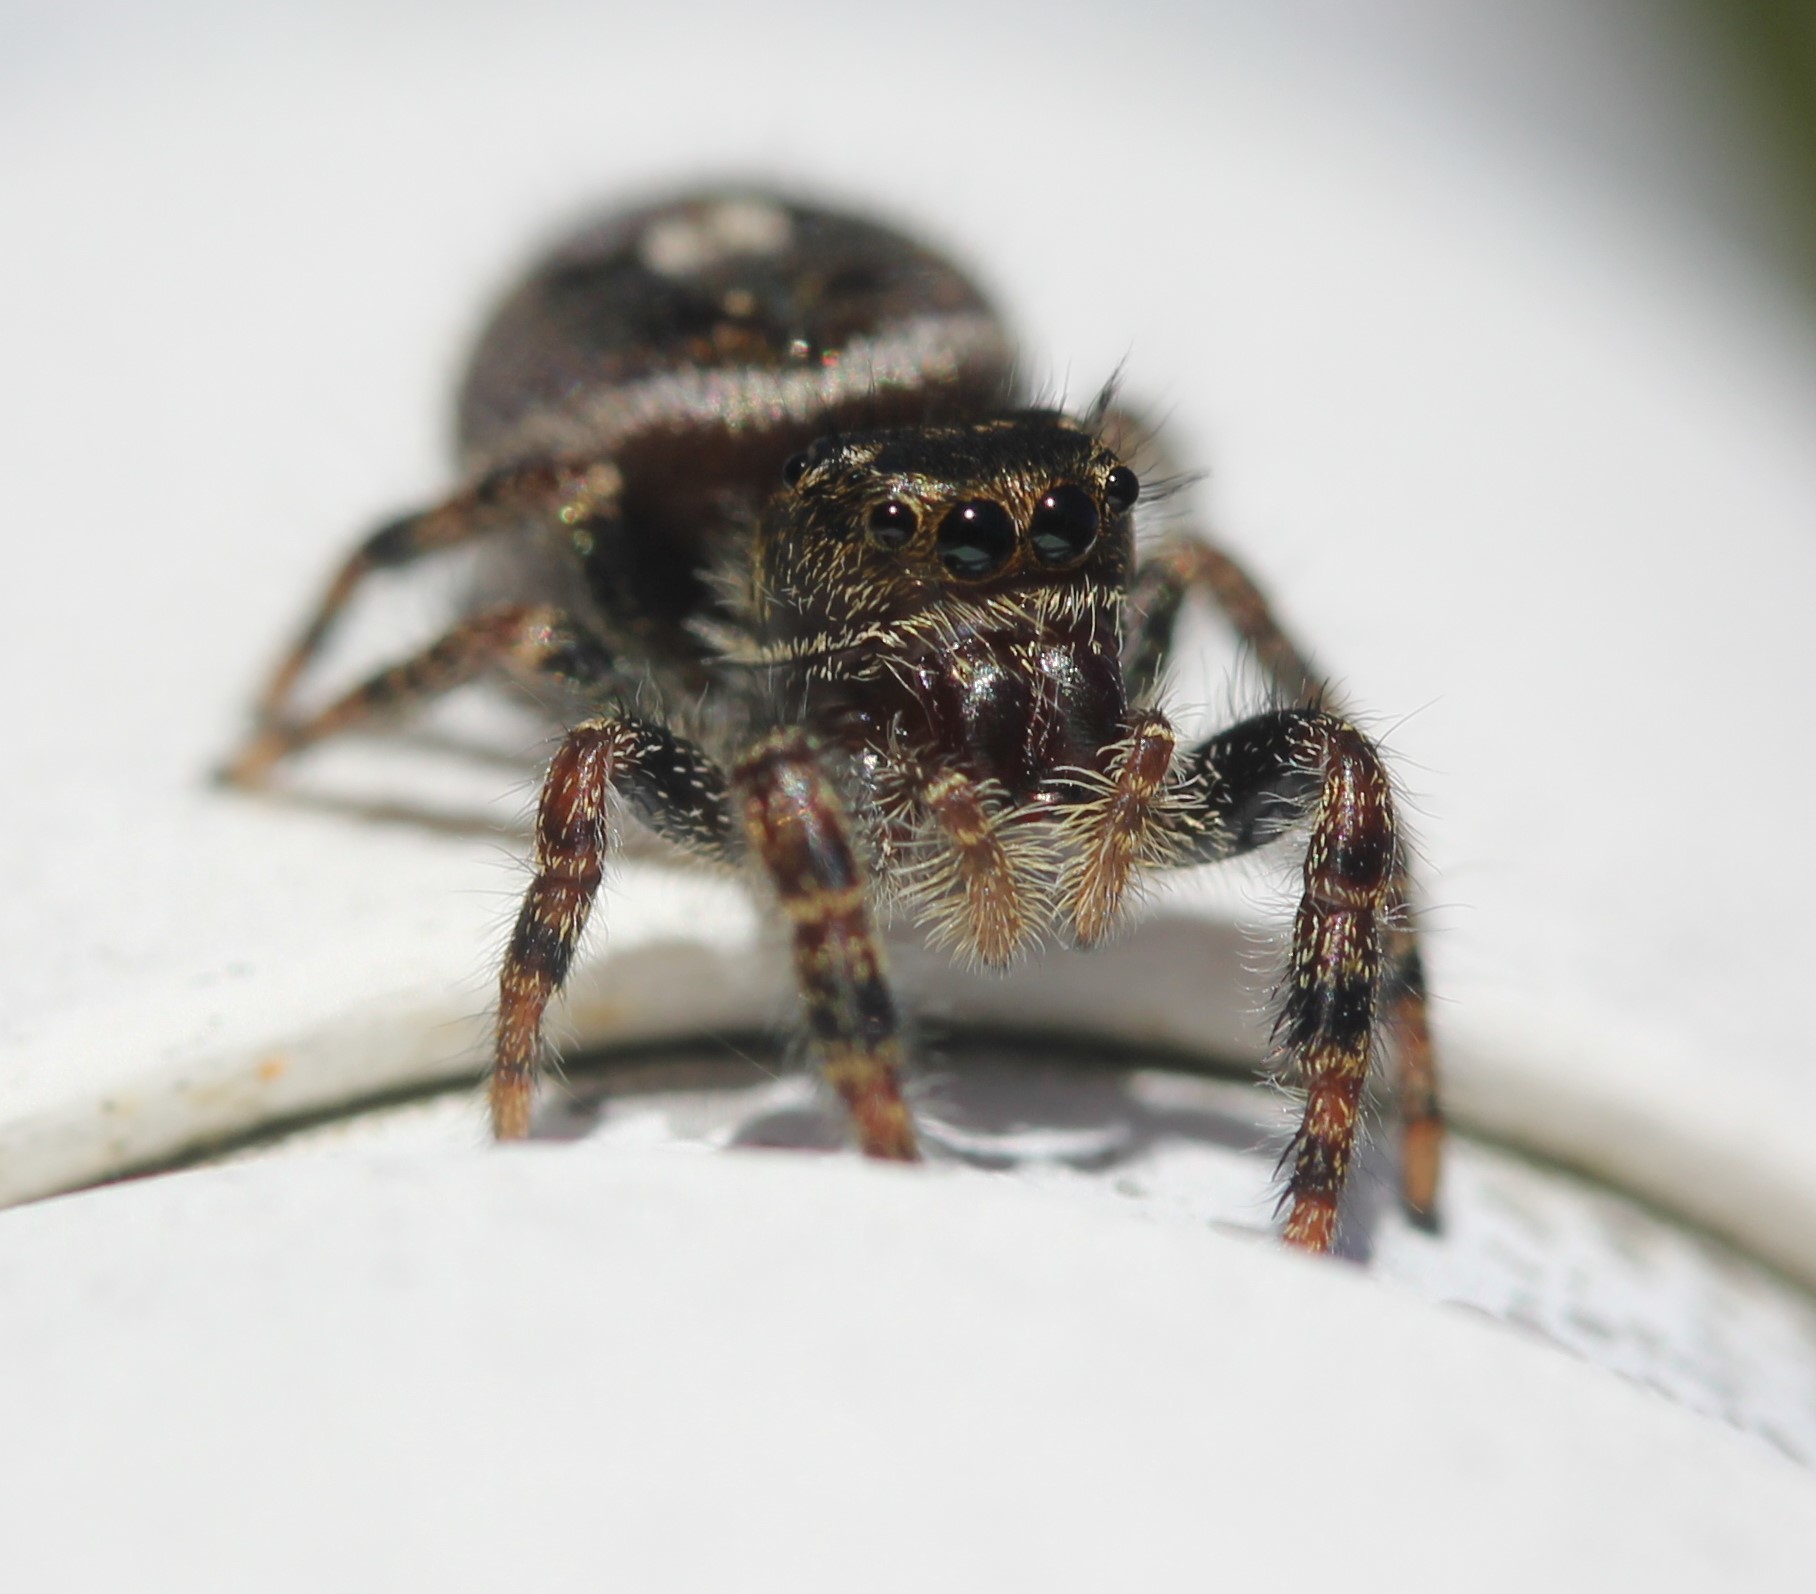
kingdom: Animalia
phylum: Arthropoda
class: Arachnida
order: Araneae
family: Salticidae
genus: Phidippus
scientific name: Phidippus audax
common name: Bold jumper
